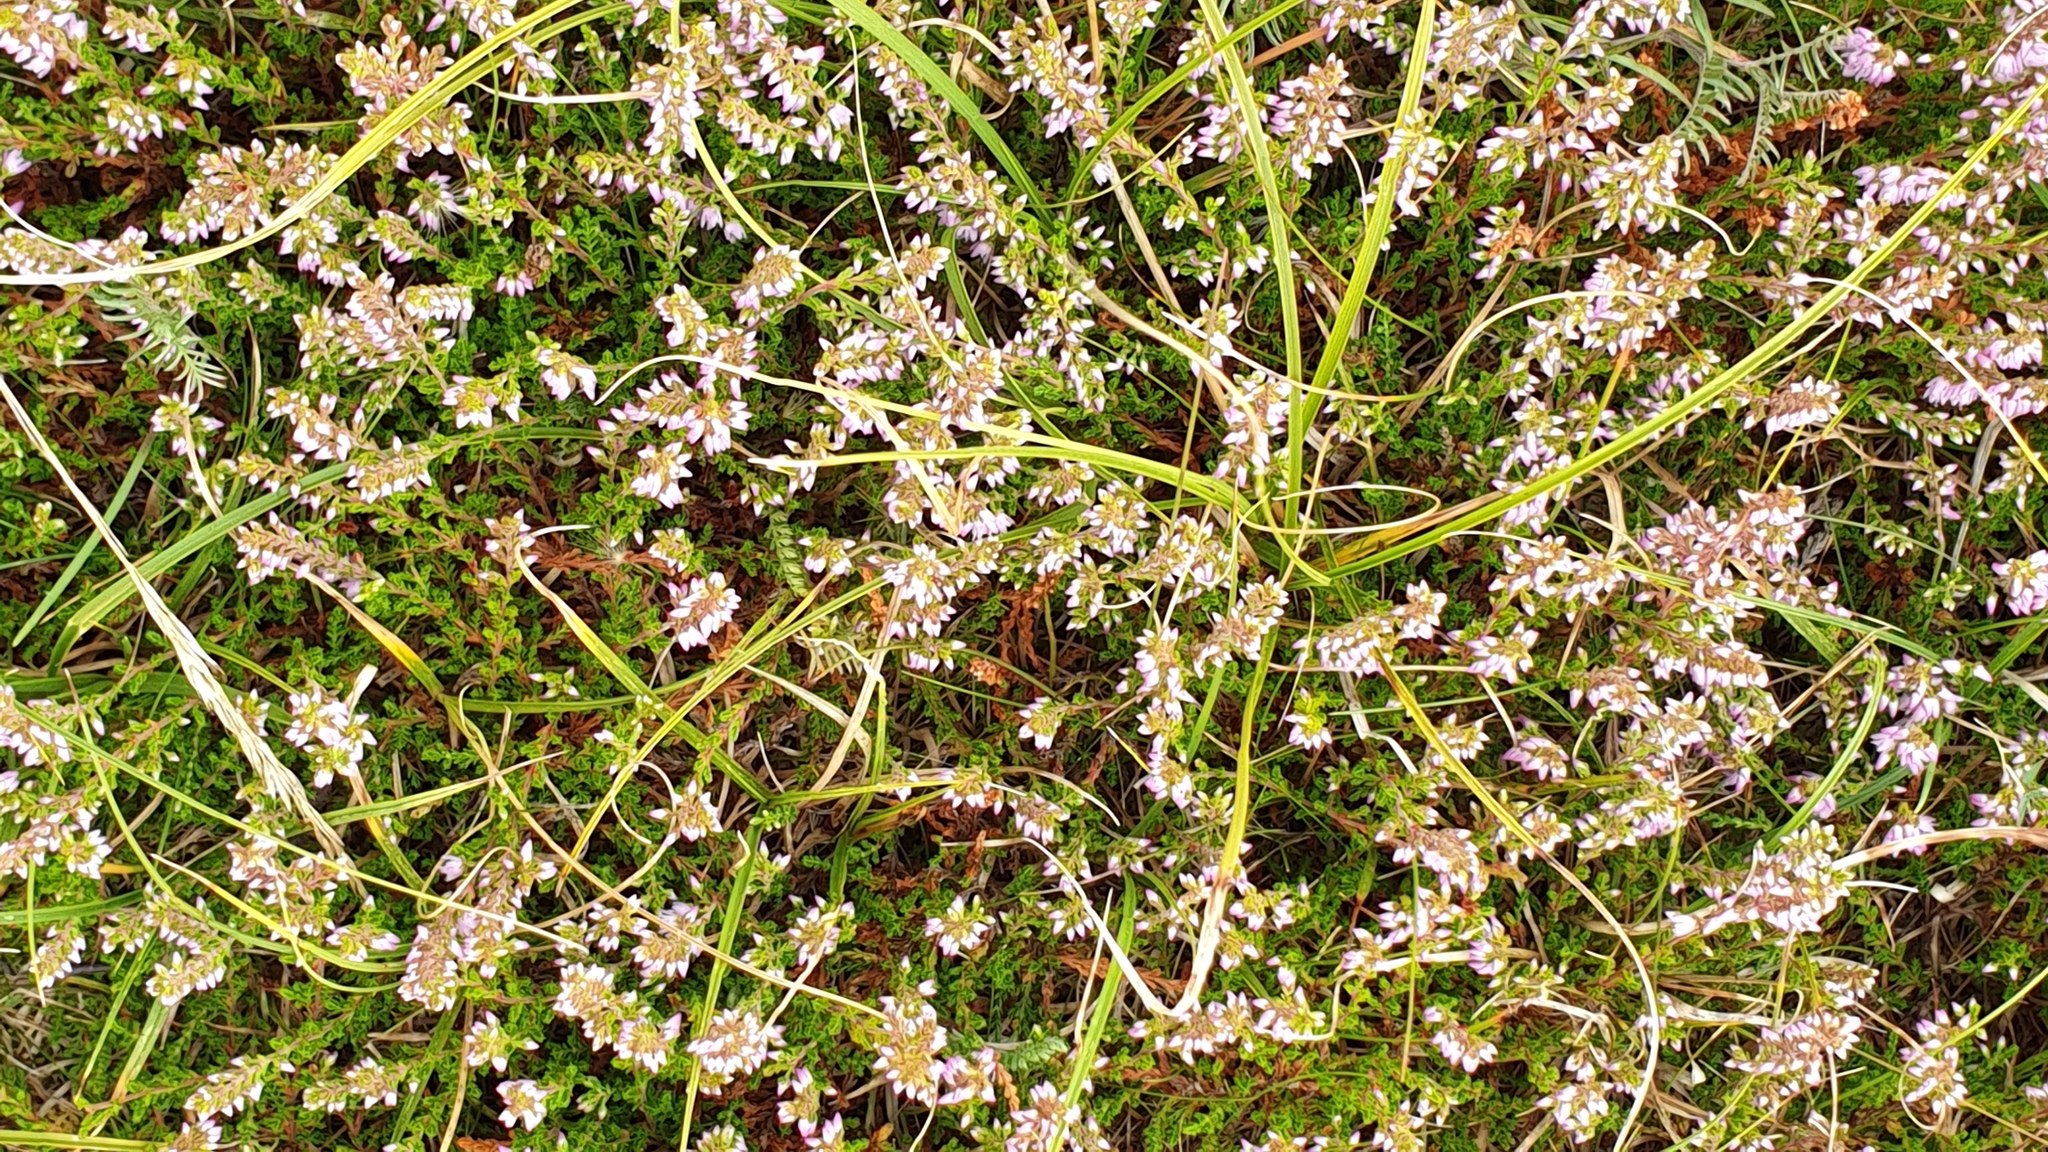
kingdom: Plantae
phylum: Tracheophyta
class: Magnoliopsida
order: Ericales
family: Ericaceae
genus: Calluna
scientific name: Calluna vulgaris
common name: Heather
